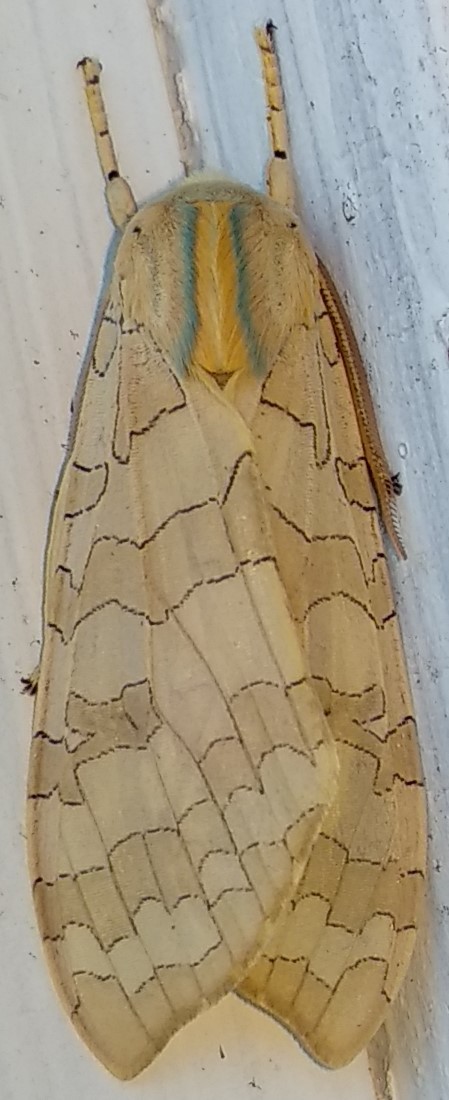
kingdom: Animalia
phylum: Arthropoda
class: Insecta
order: Lepidoptera
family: Erebidae
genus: Halysidota
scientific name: Halysidota tessellaris
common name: Banded tussock moth
